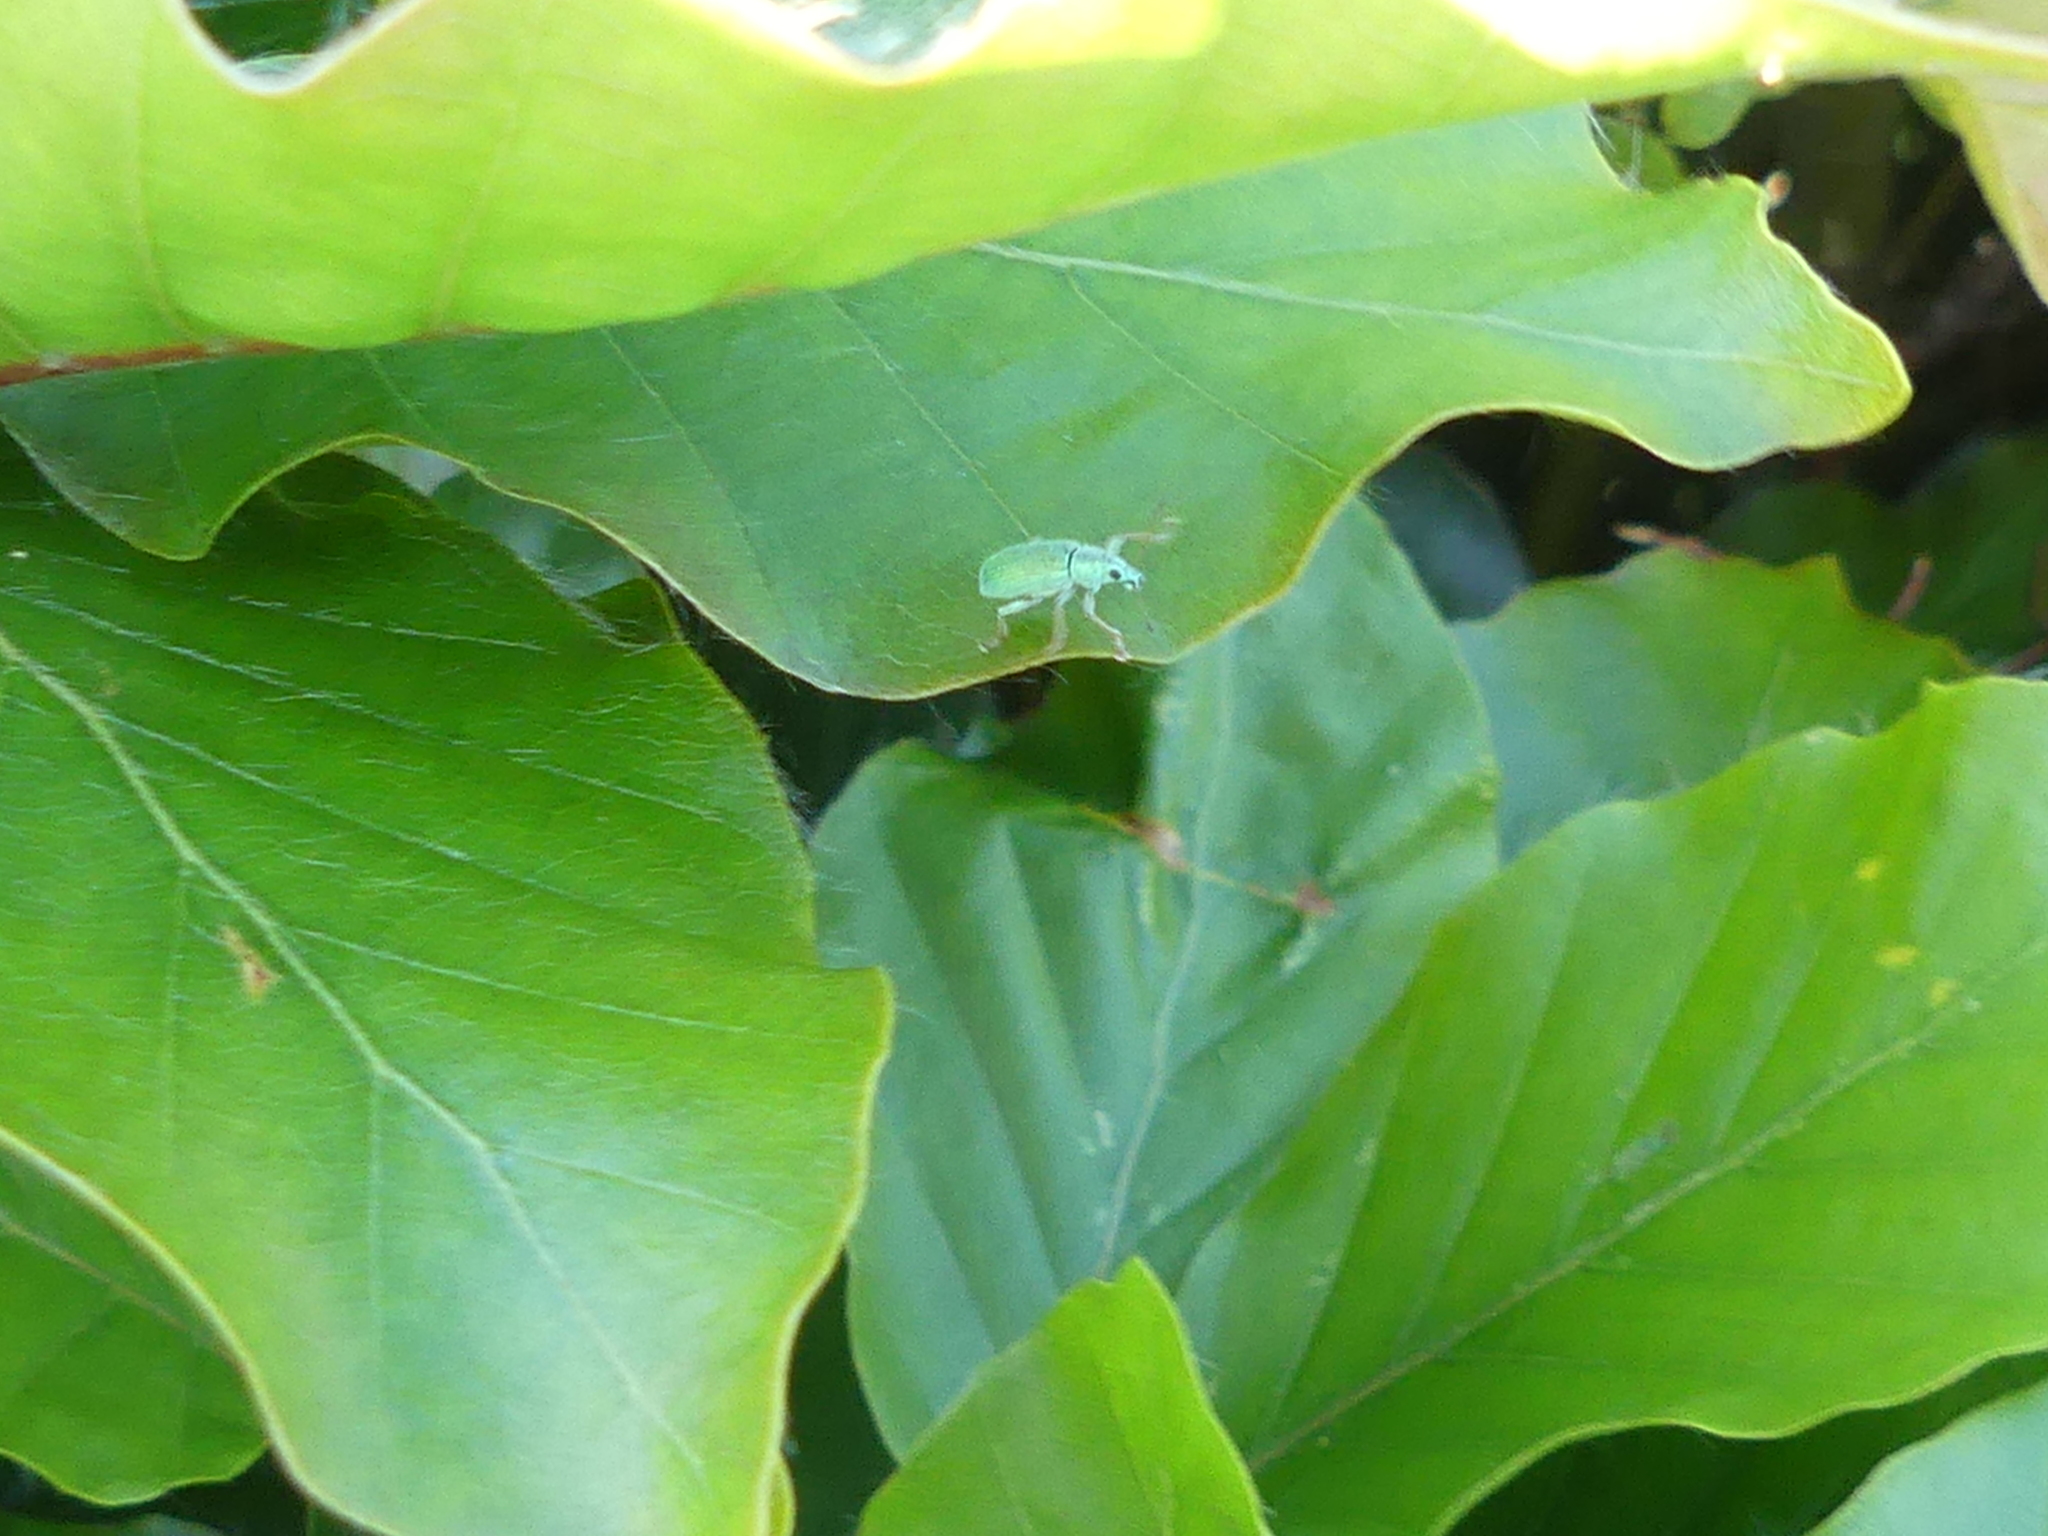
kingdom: Animalia
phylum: Arthropoda
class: Insecta
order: Coleoptera
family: Curculionidae
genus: Polydrusus
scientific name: Polydrusus formosus
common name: Weevil
